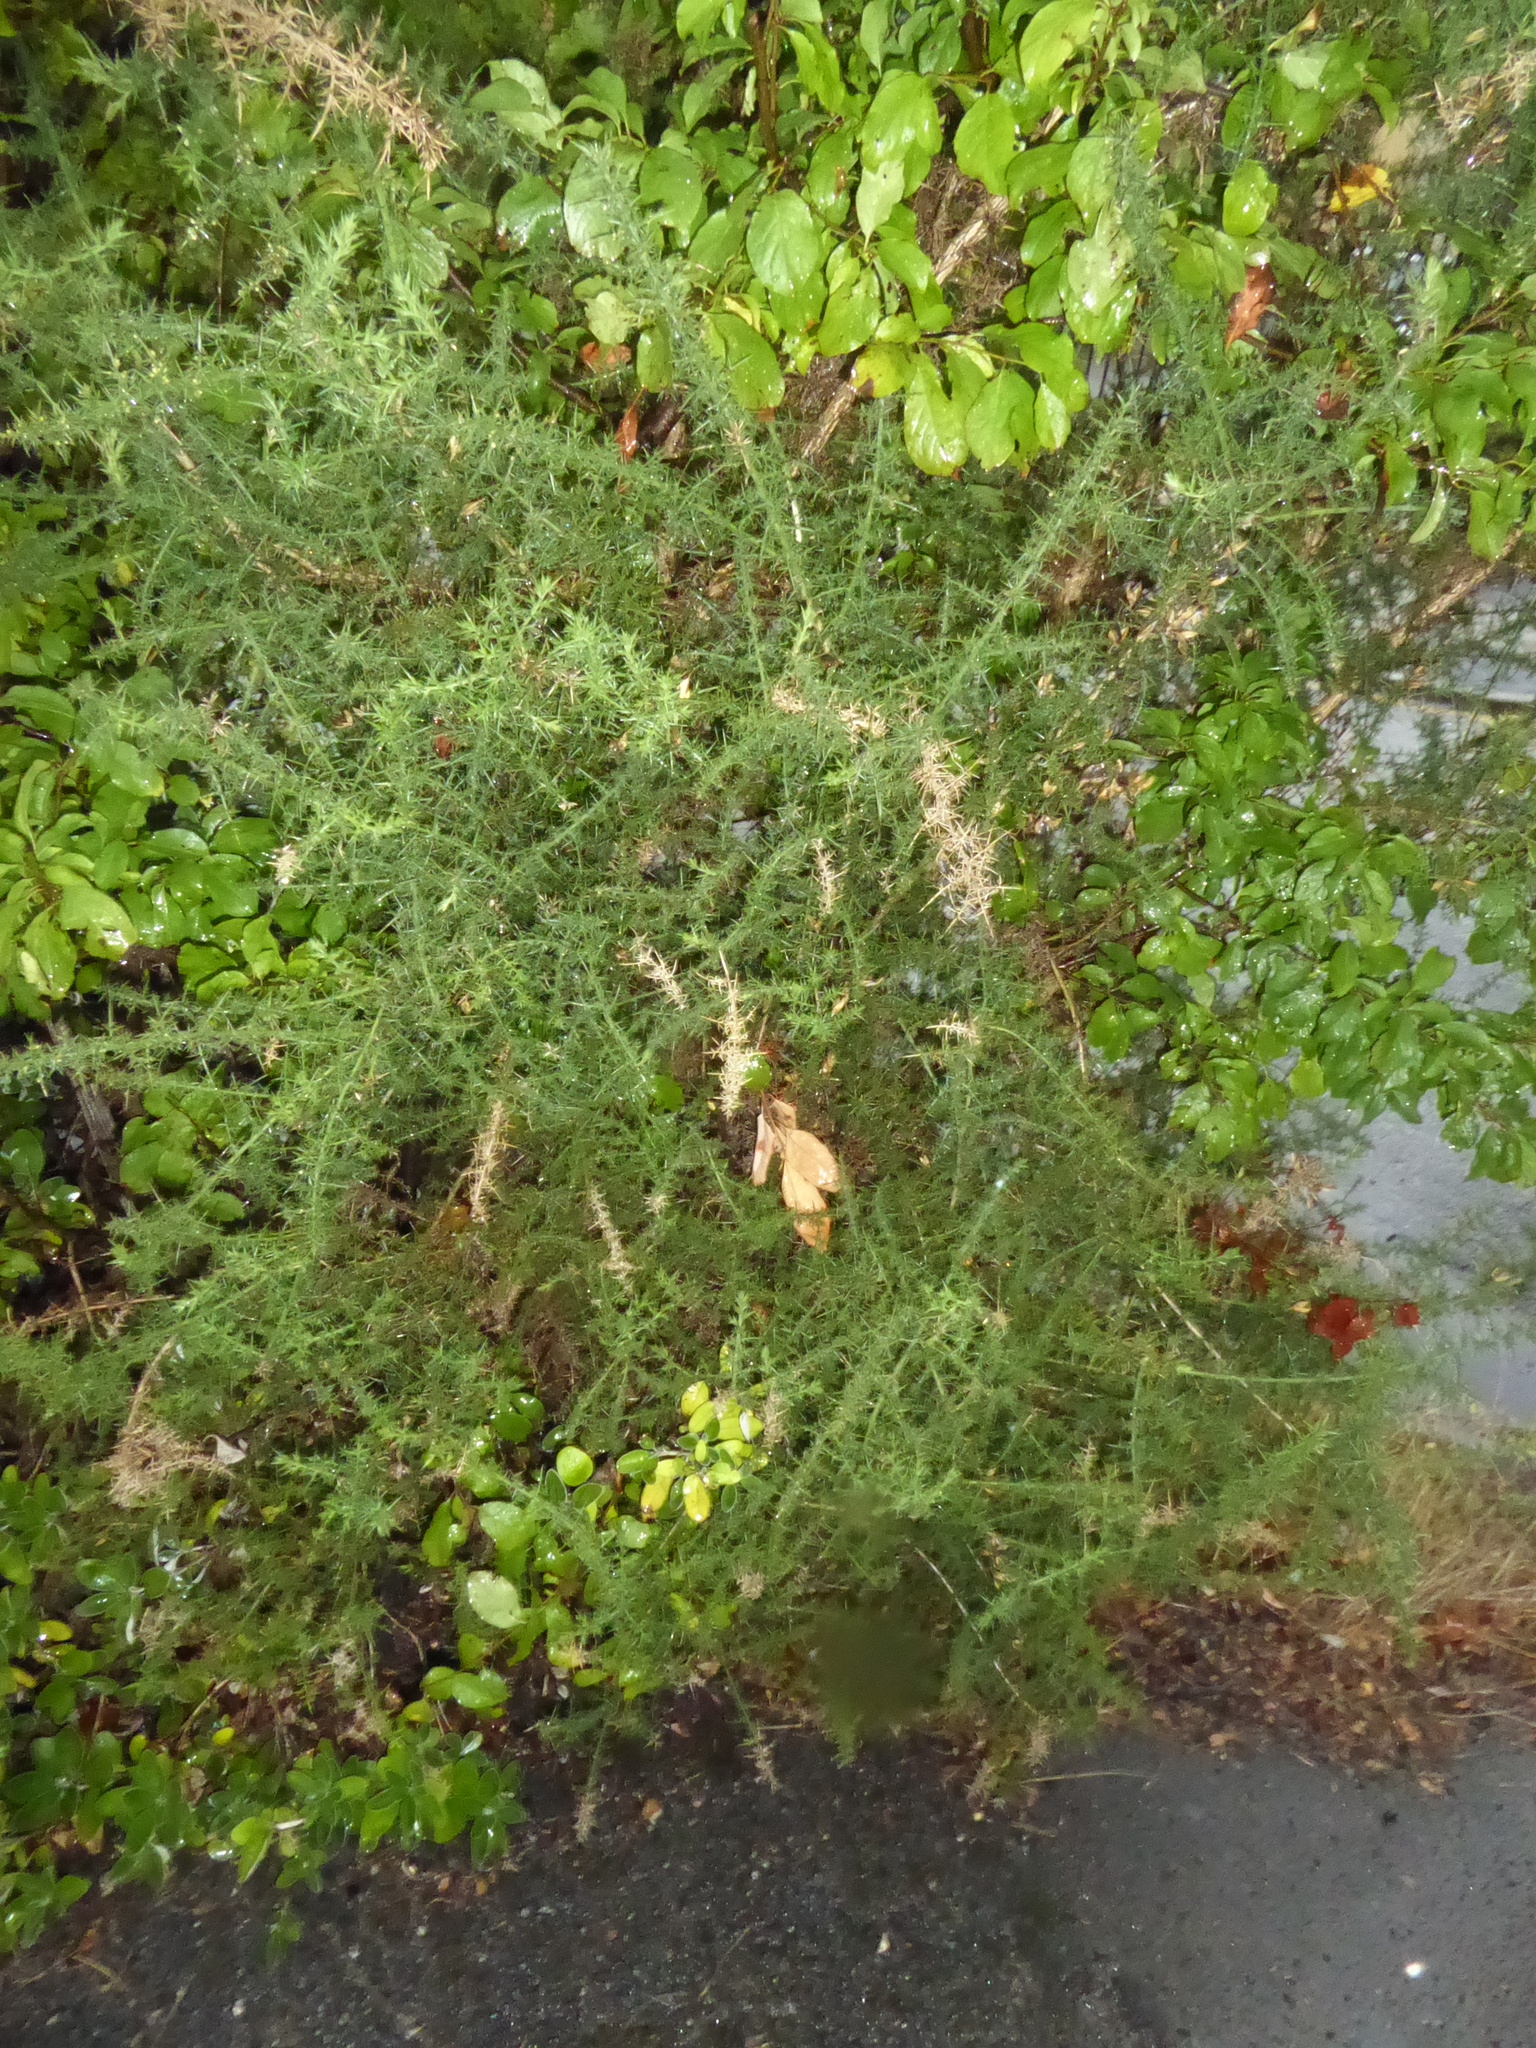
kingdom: Plantae
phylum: Tracheophyta
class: Magnoliopsida
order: Fabales
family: Fabaceae
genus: Ulex
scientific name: Ulex europaeus
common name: Common gorse
